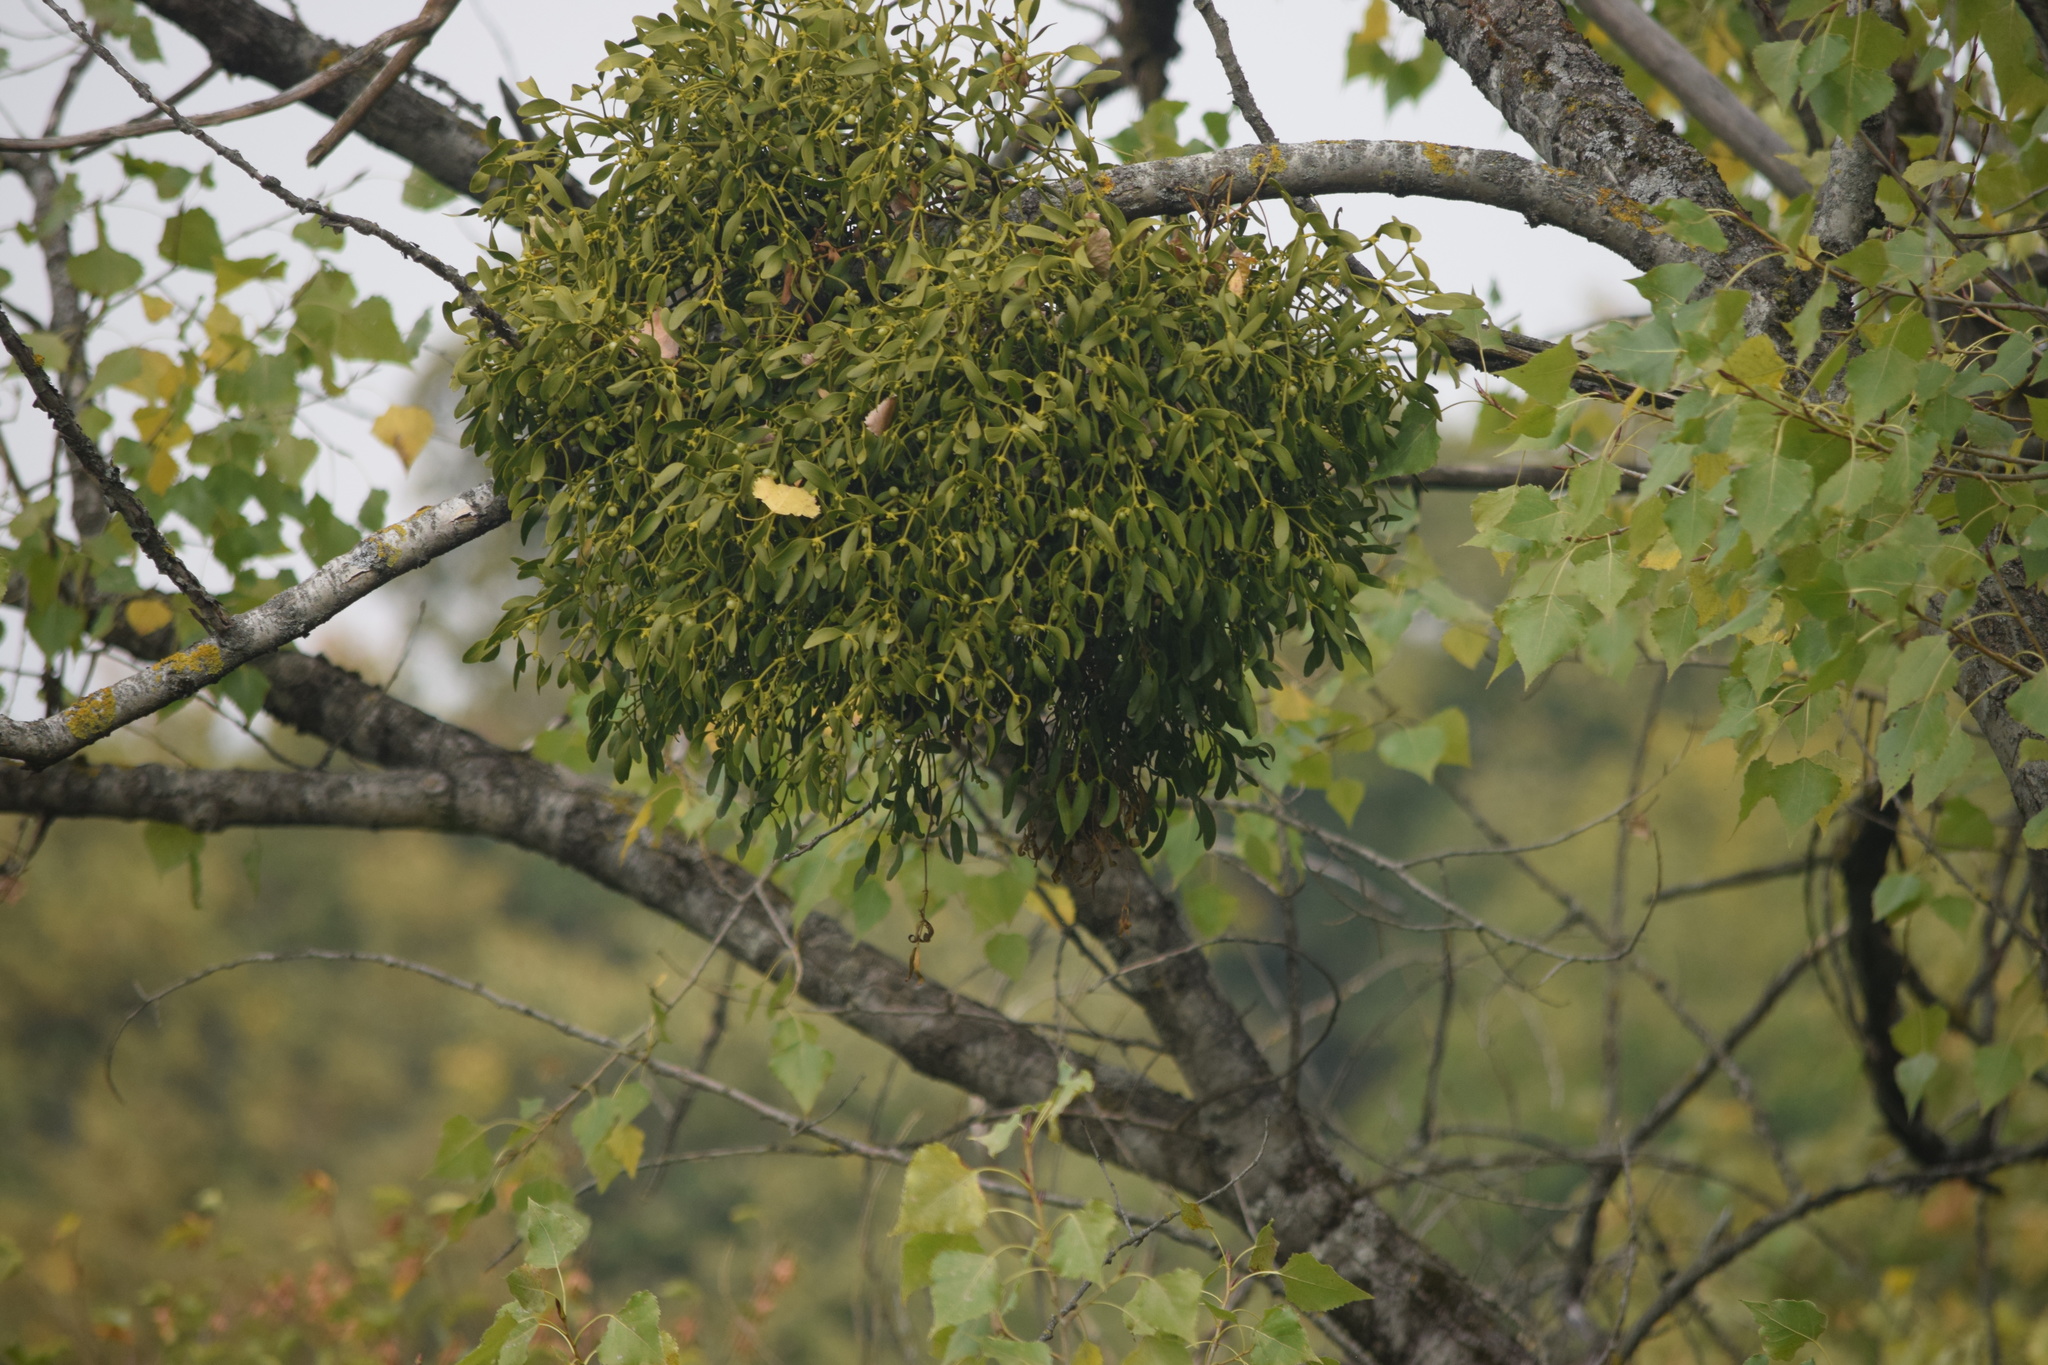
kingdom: Plantae
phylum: Tracheophyta
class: Magnoliopsida
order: Santalales
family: Viscaceae
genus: Viscum
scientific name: Viscum album
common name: Mistletoe
